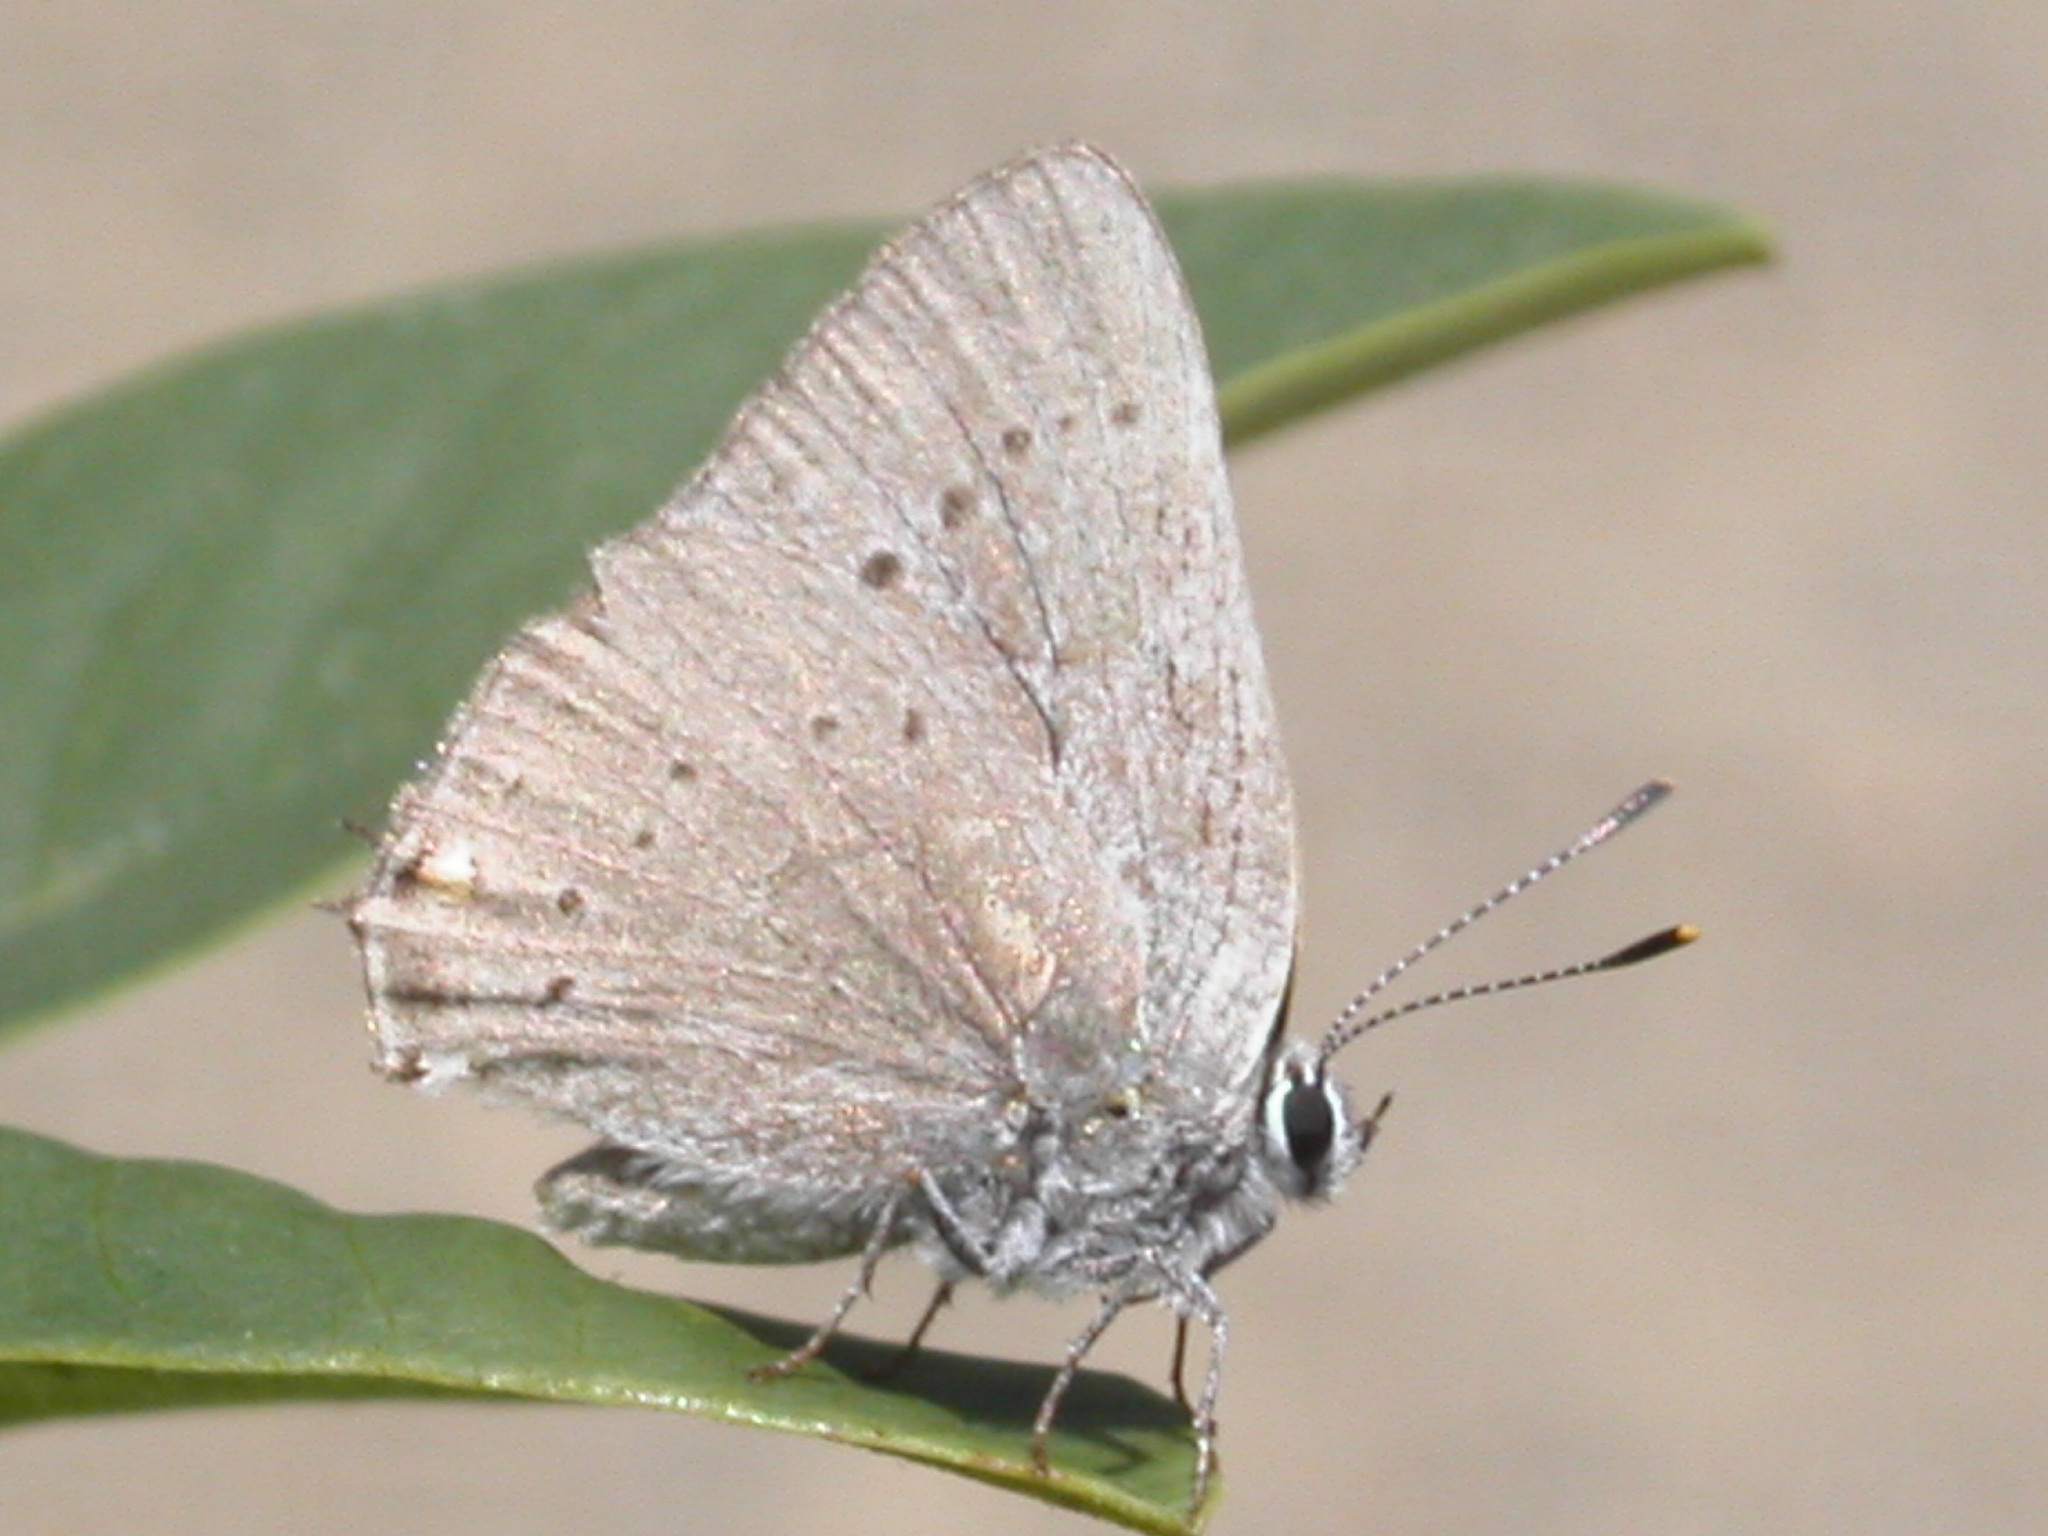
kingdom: Animalia
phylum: Arthropoda
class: Insecta
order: Lepidoptera
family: Lycaenidae
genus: Strymon
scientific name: Strymon sylvinus
